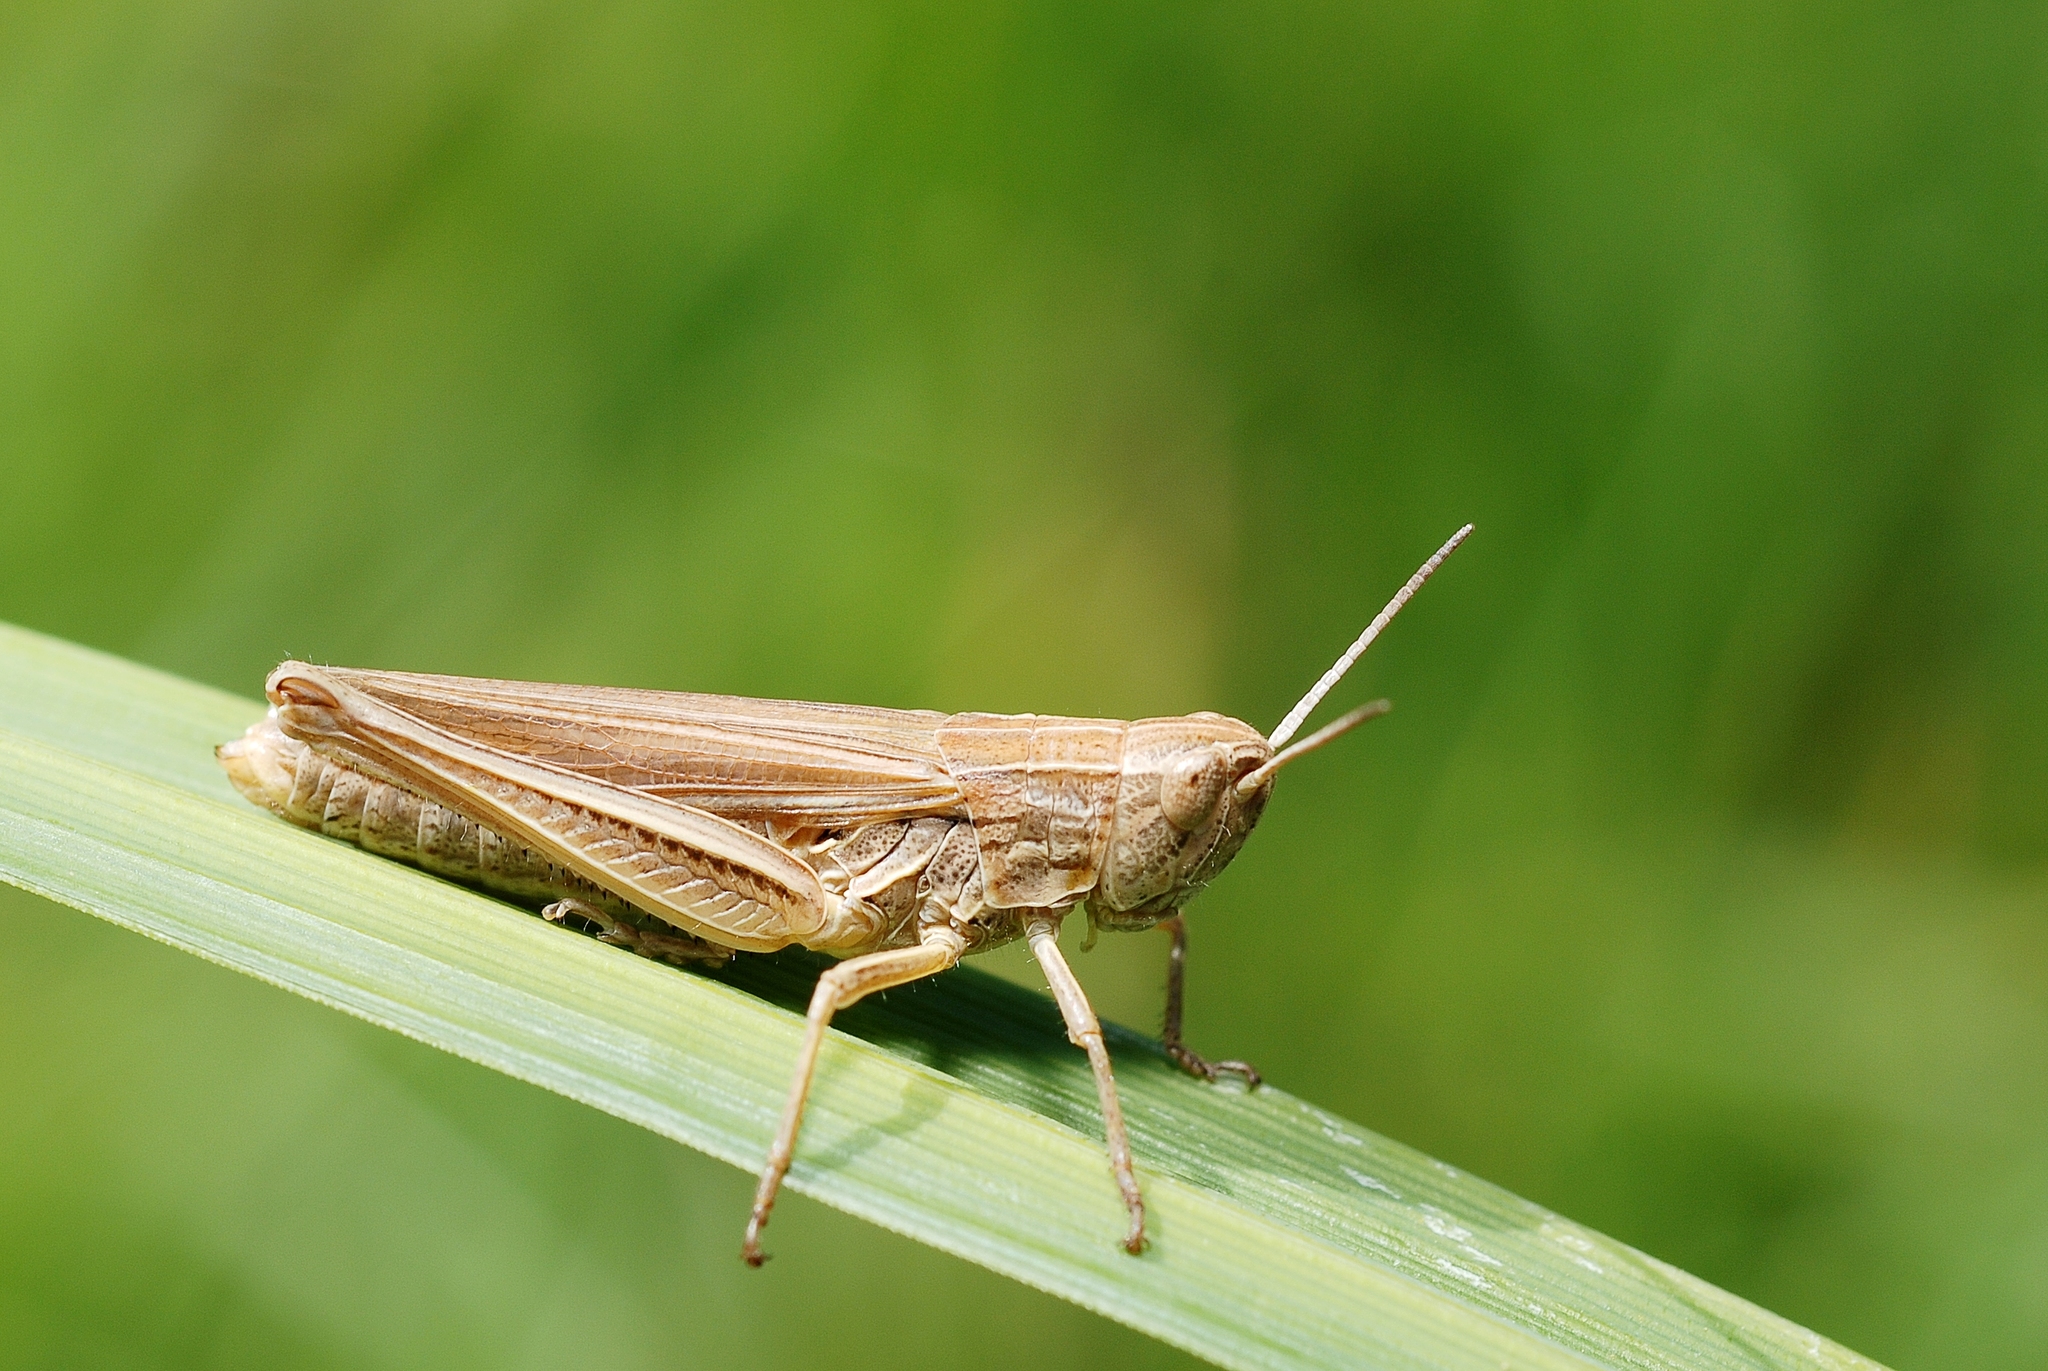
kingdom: Animalia
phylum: Arthropoda
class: Insecta
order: Orthoptera
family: Acrididae
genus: Chorthippus
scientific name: Chorthippus albomarginatus
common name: Lesser marsh grasshopper
